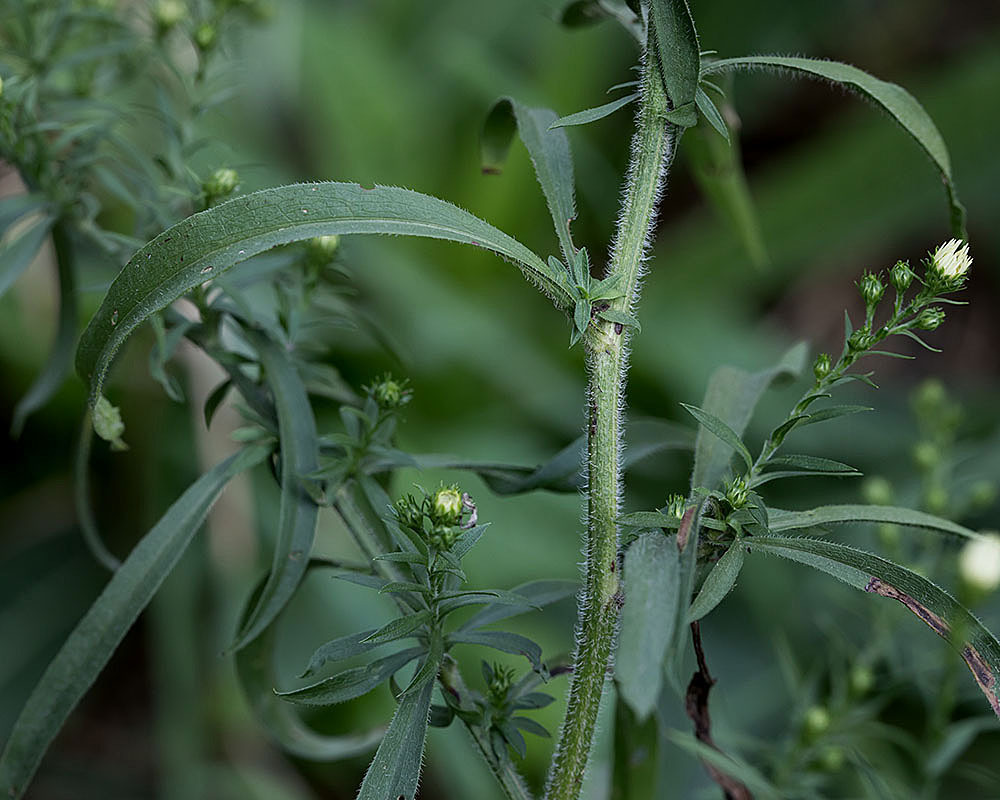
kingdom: Plantae
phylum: Tracheophyta
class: Magnoliopsida
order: Asterales
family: Asteraceae
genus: Symphyotrichum
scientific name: Symphyotrichum pilosum
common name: Awl aster
